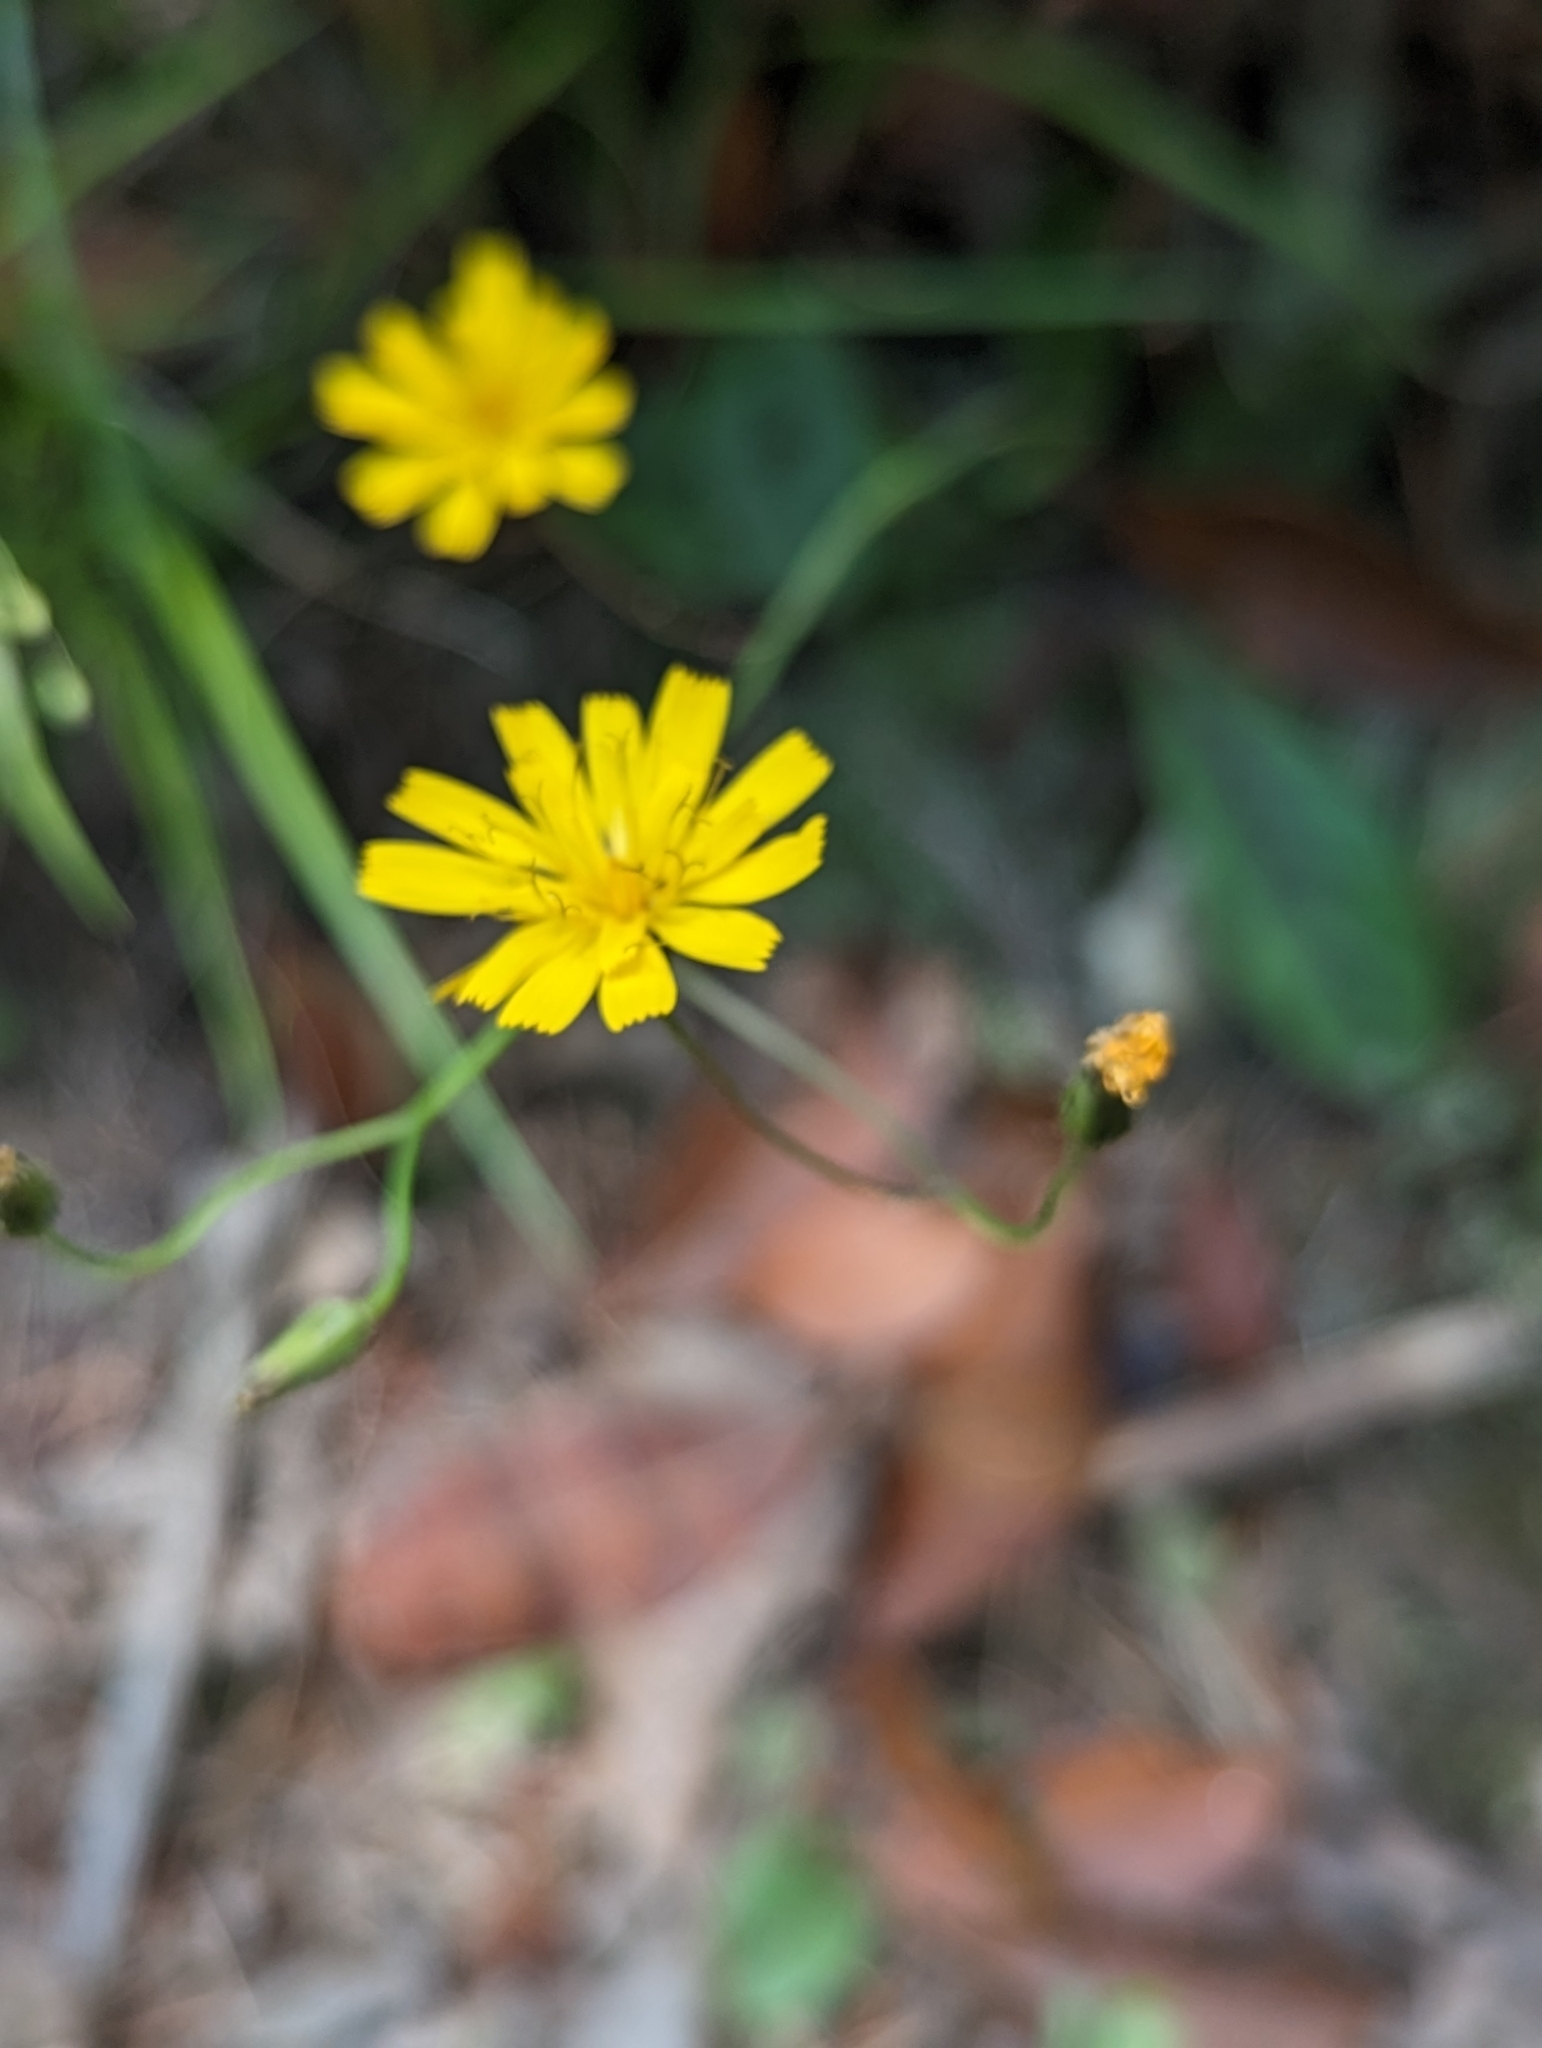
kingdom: Plantae
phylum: Tracheophyta
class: Magnoliopsida
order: Asterales
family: Asteraceae
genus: Hieracium
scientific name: Hieracium venosum
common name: Rattlesnake hawkweed
